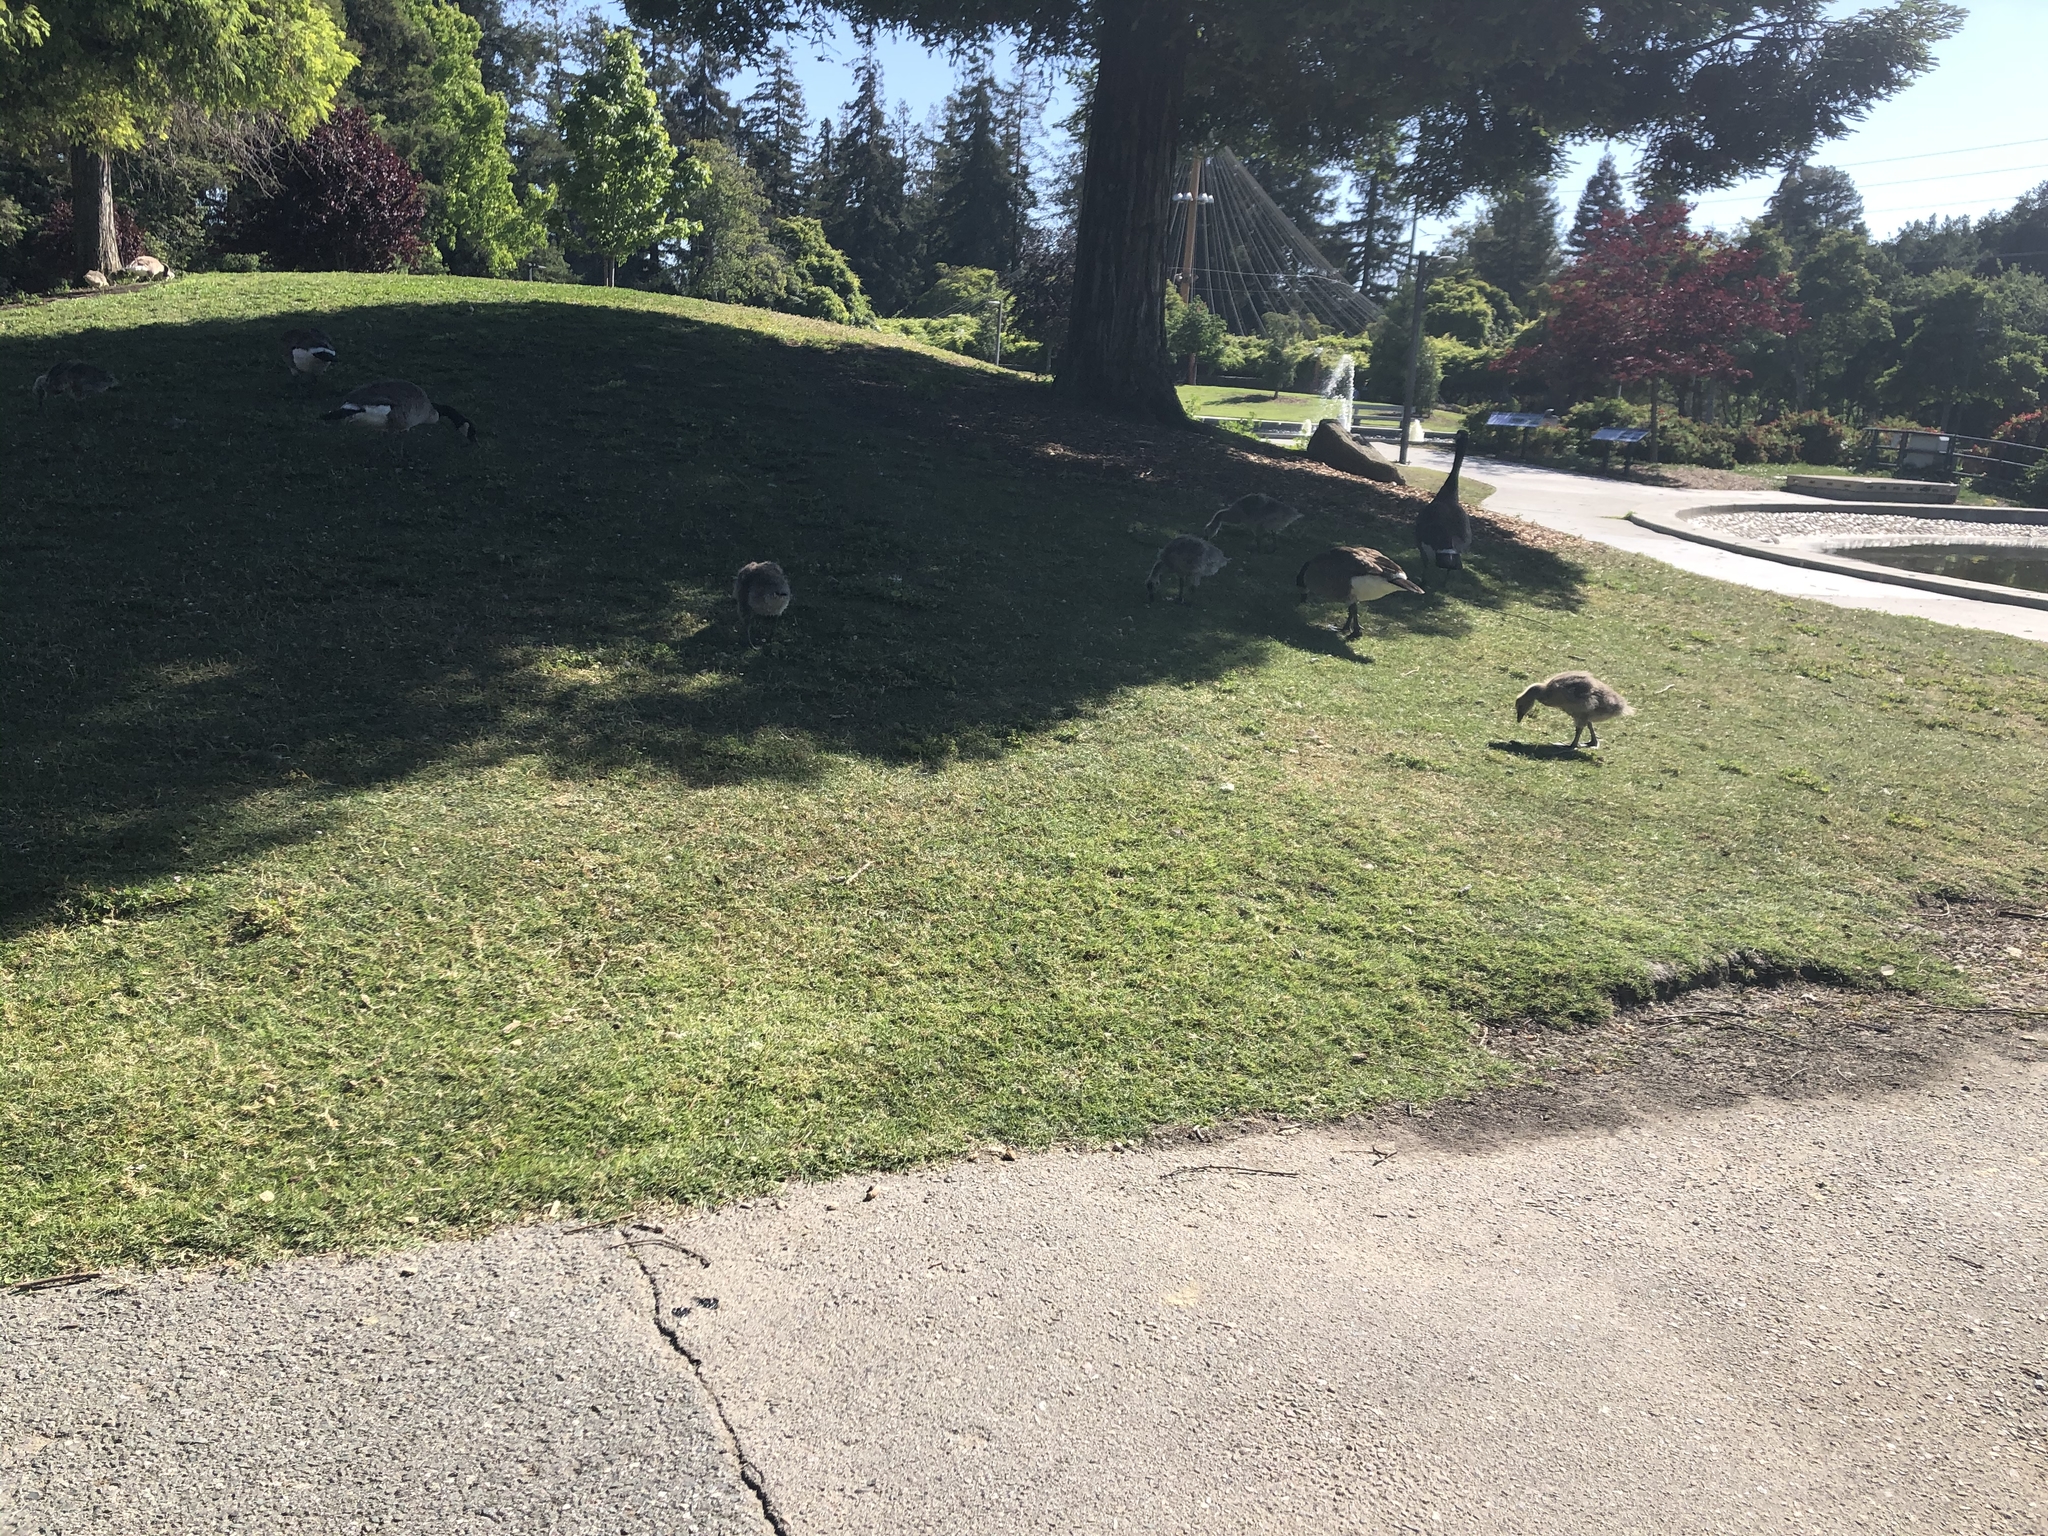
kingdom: Animalia
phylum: Chordata
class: Aves
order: Anseriformes
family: Anatidae
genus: Branta
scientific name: Branta canadensis
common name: Canada goose
